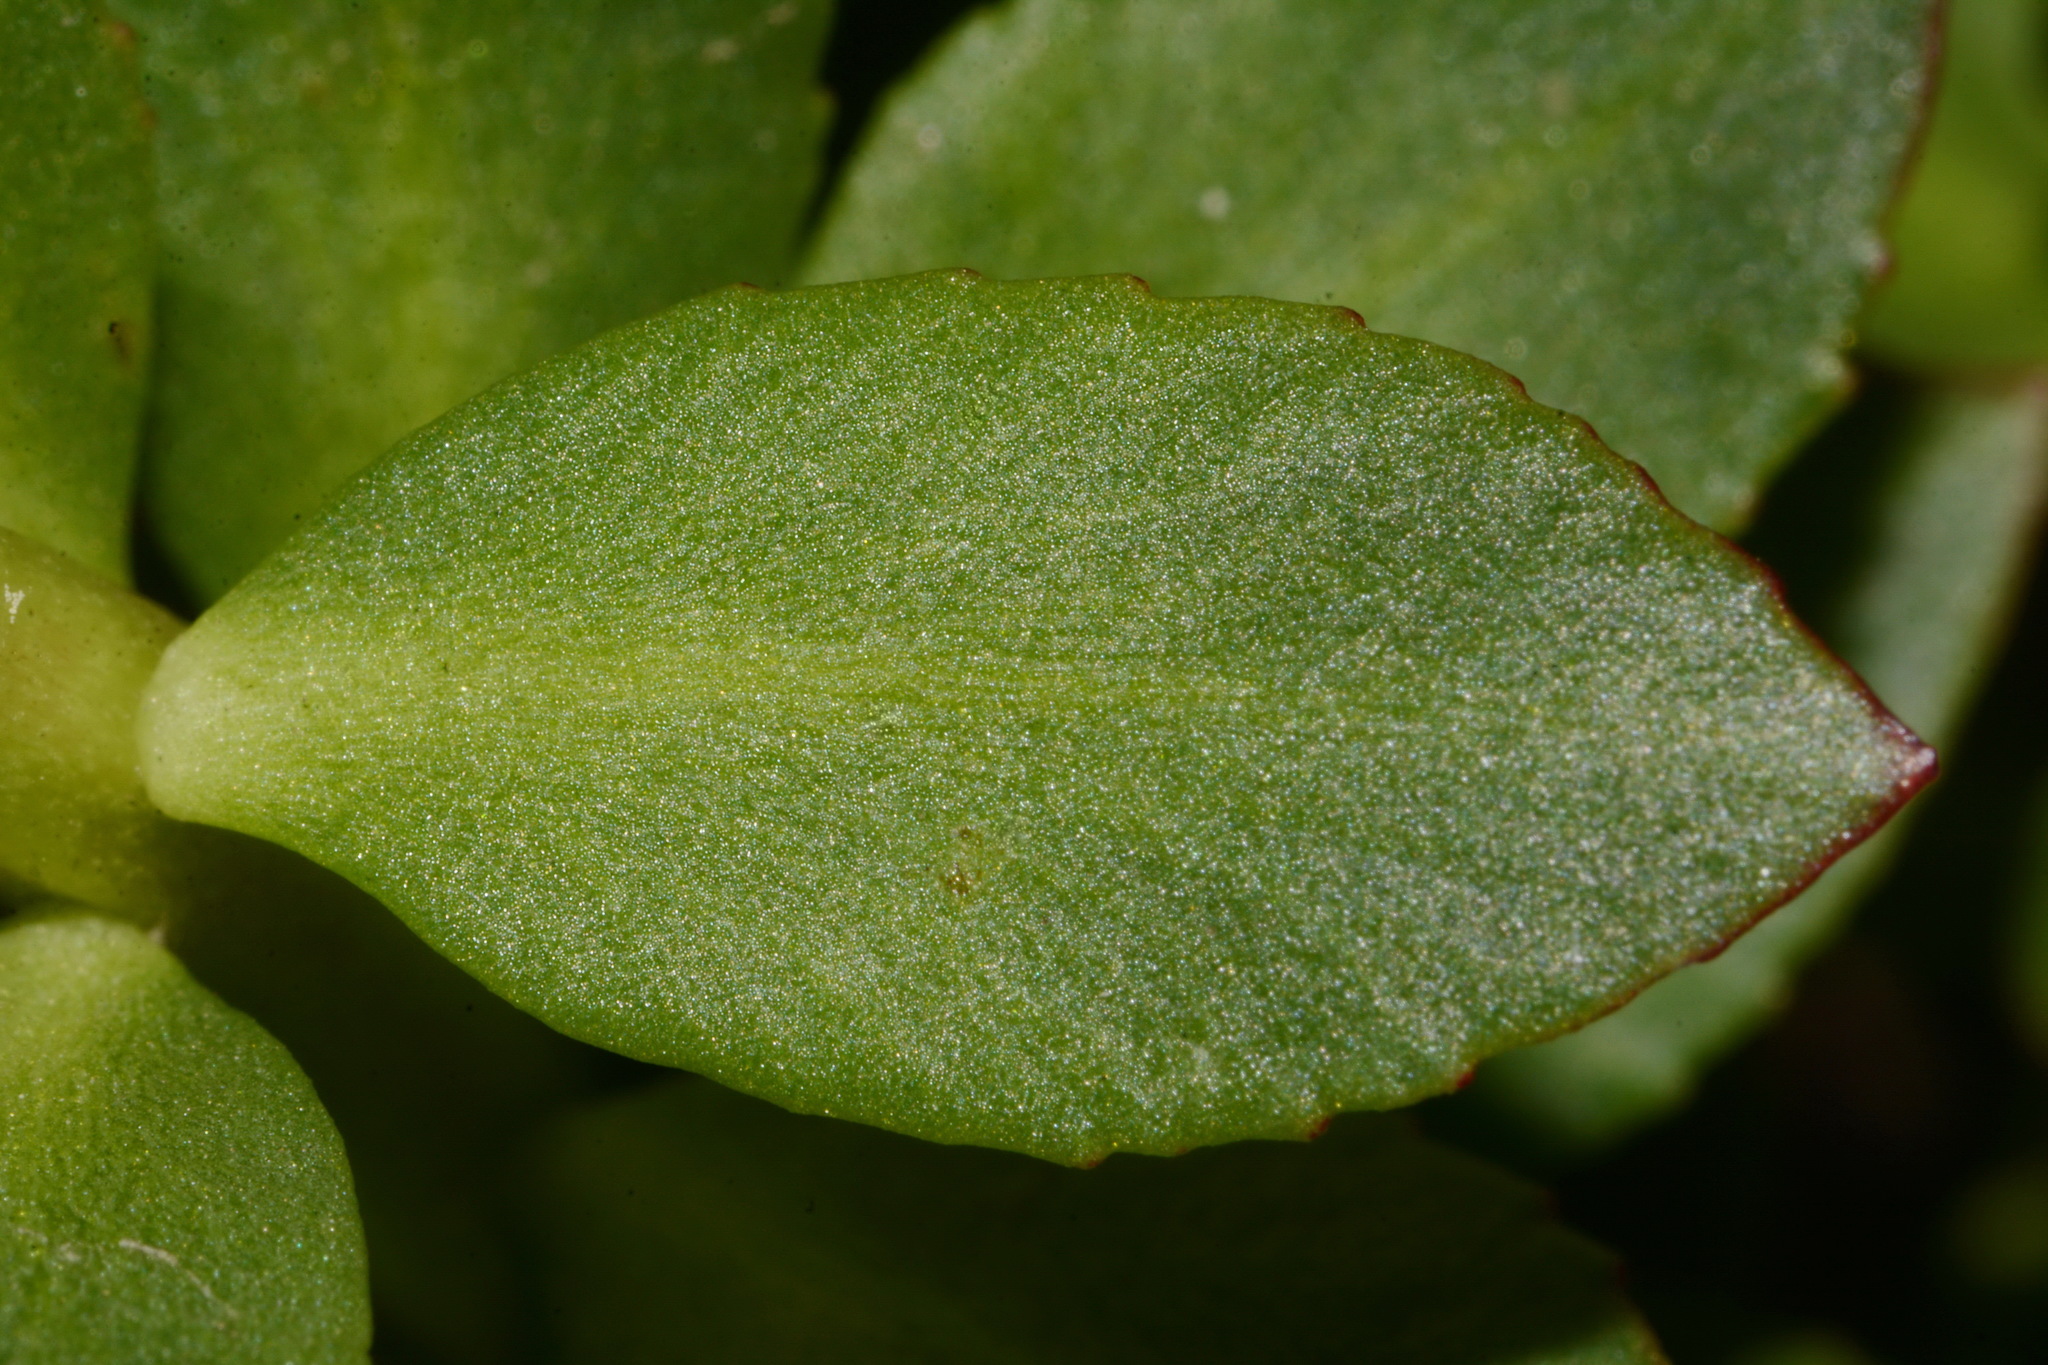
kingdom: Plantae
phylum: Tracheophyta
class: Magnoliopsida
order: Saxifragales
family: Crassulaceae
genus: Rhodiola
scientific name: Rhodiola integrifolia
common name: Western roseroot
